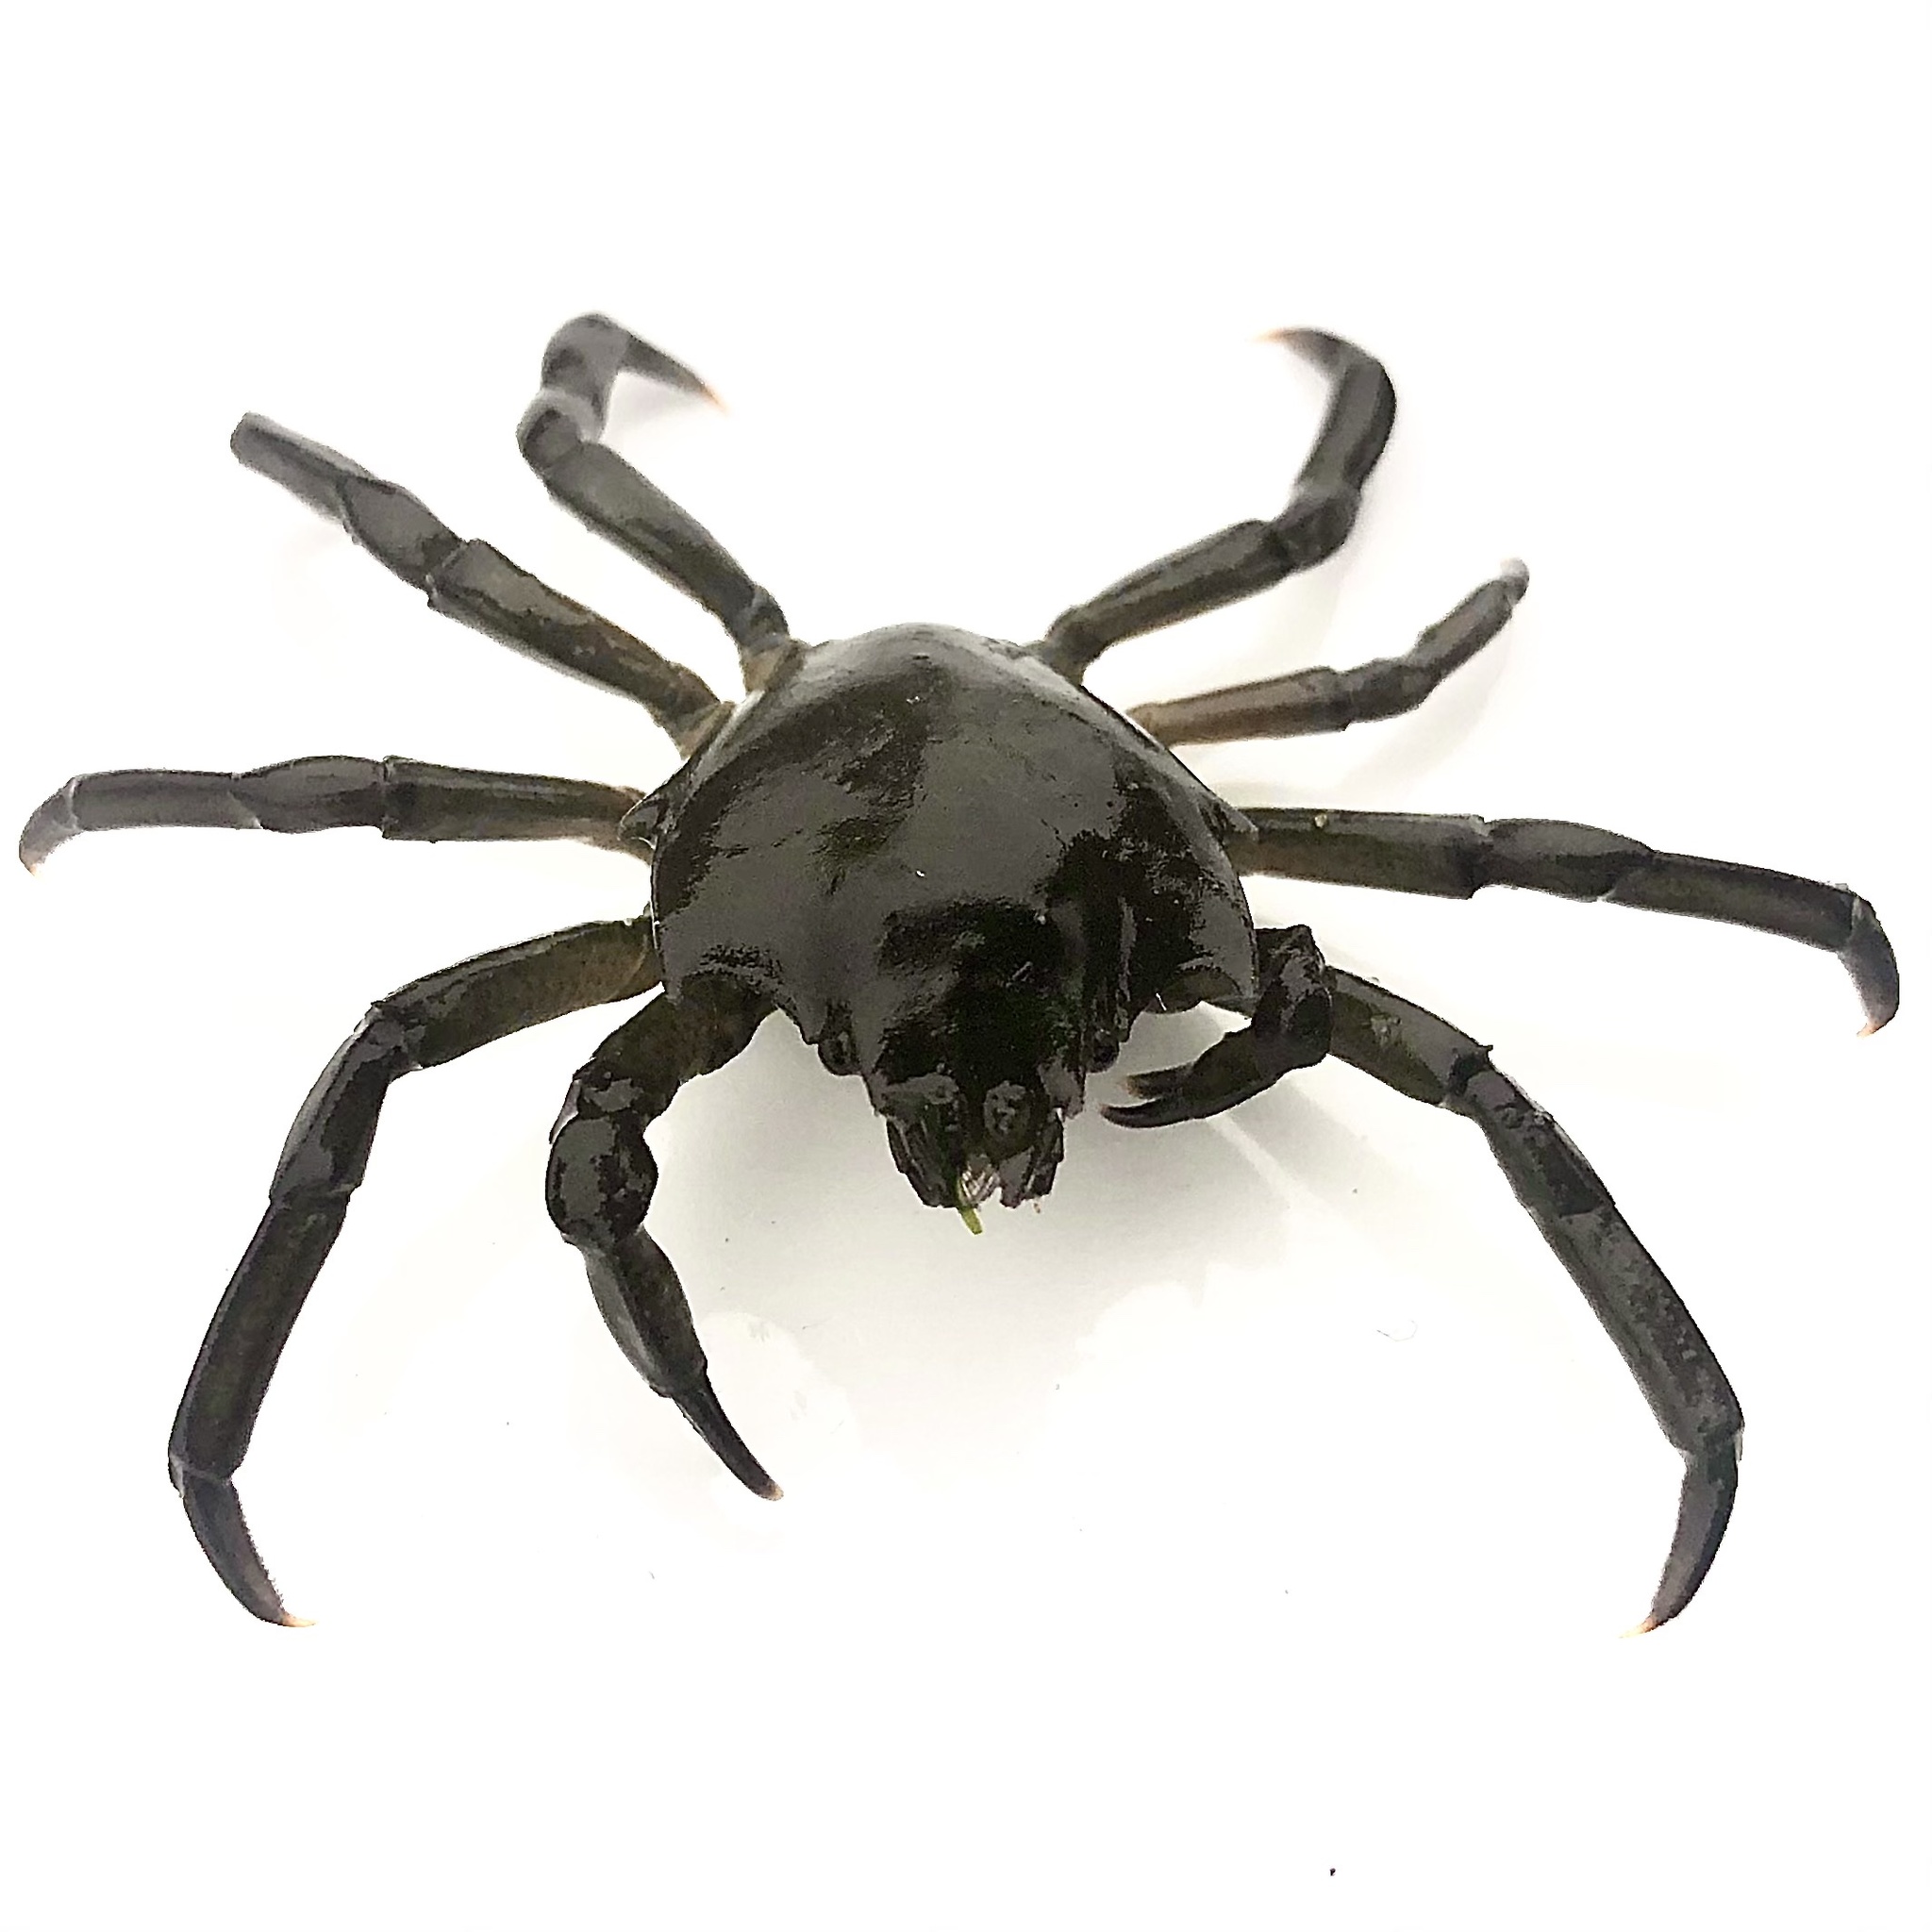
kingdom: Animalia
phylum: Arthropoda
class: Malacostraca
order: Decapoda
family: Epialtidae
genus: Pugettia
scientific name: Pugettia producta
